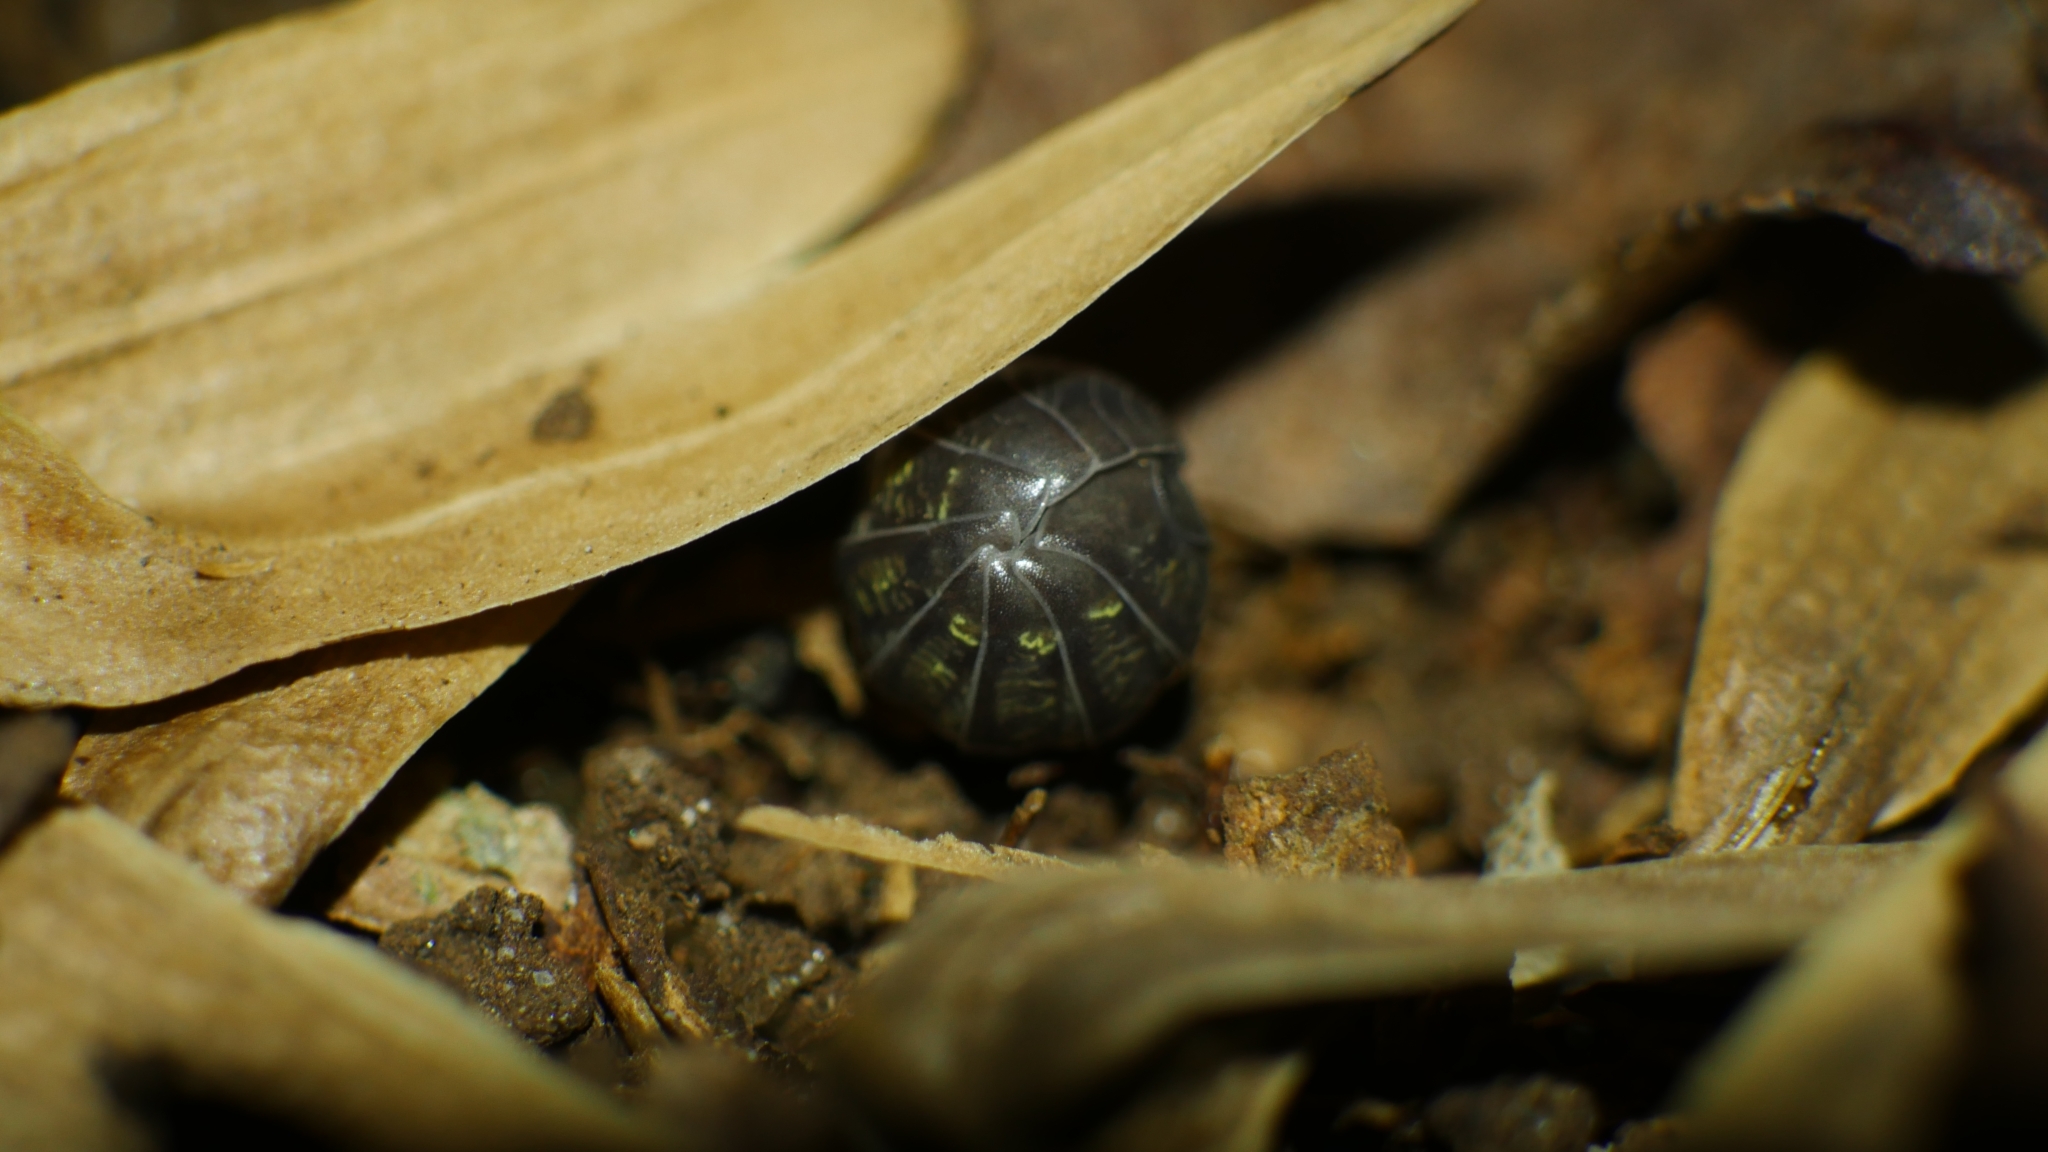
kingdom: Animalia
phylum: Arthropoda
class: Malacostraca
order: Isopoda
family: Armadillidiidae
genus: Armadillidium
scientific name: Armadillidium vulgare
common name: Common pill woodlouse
